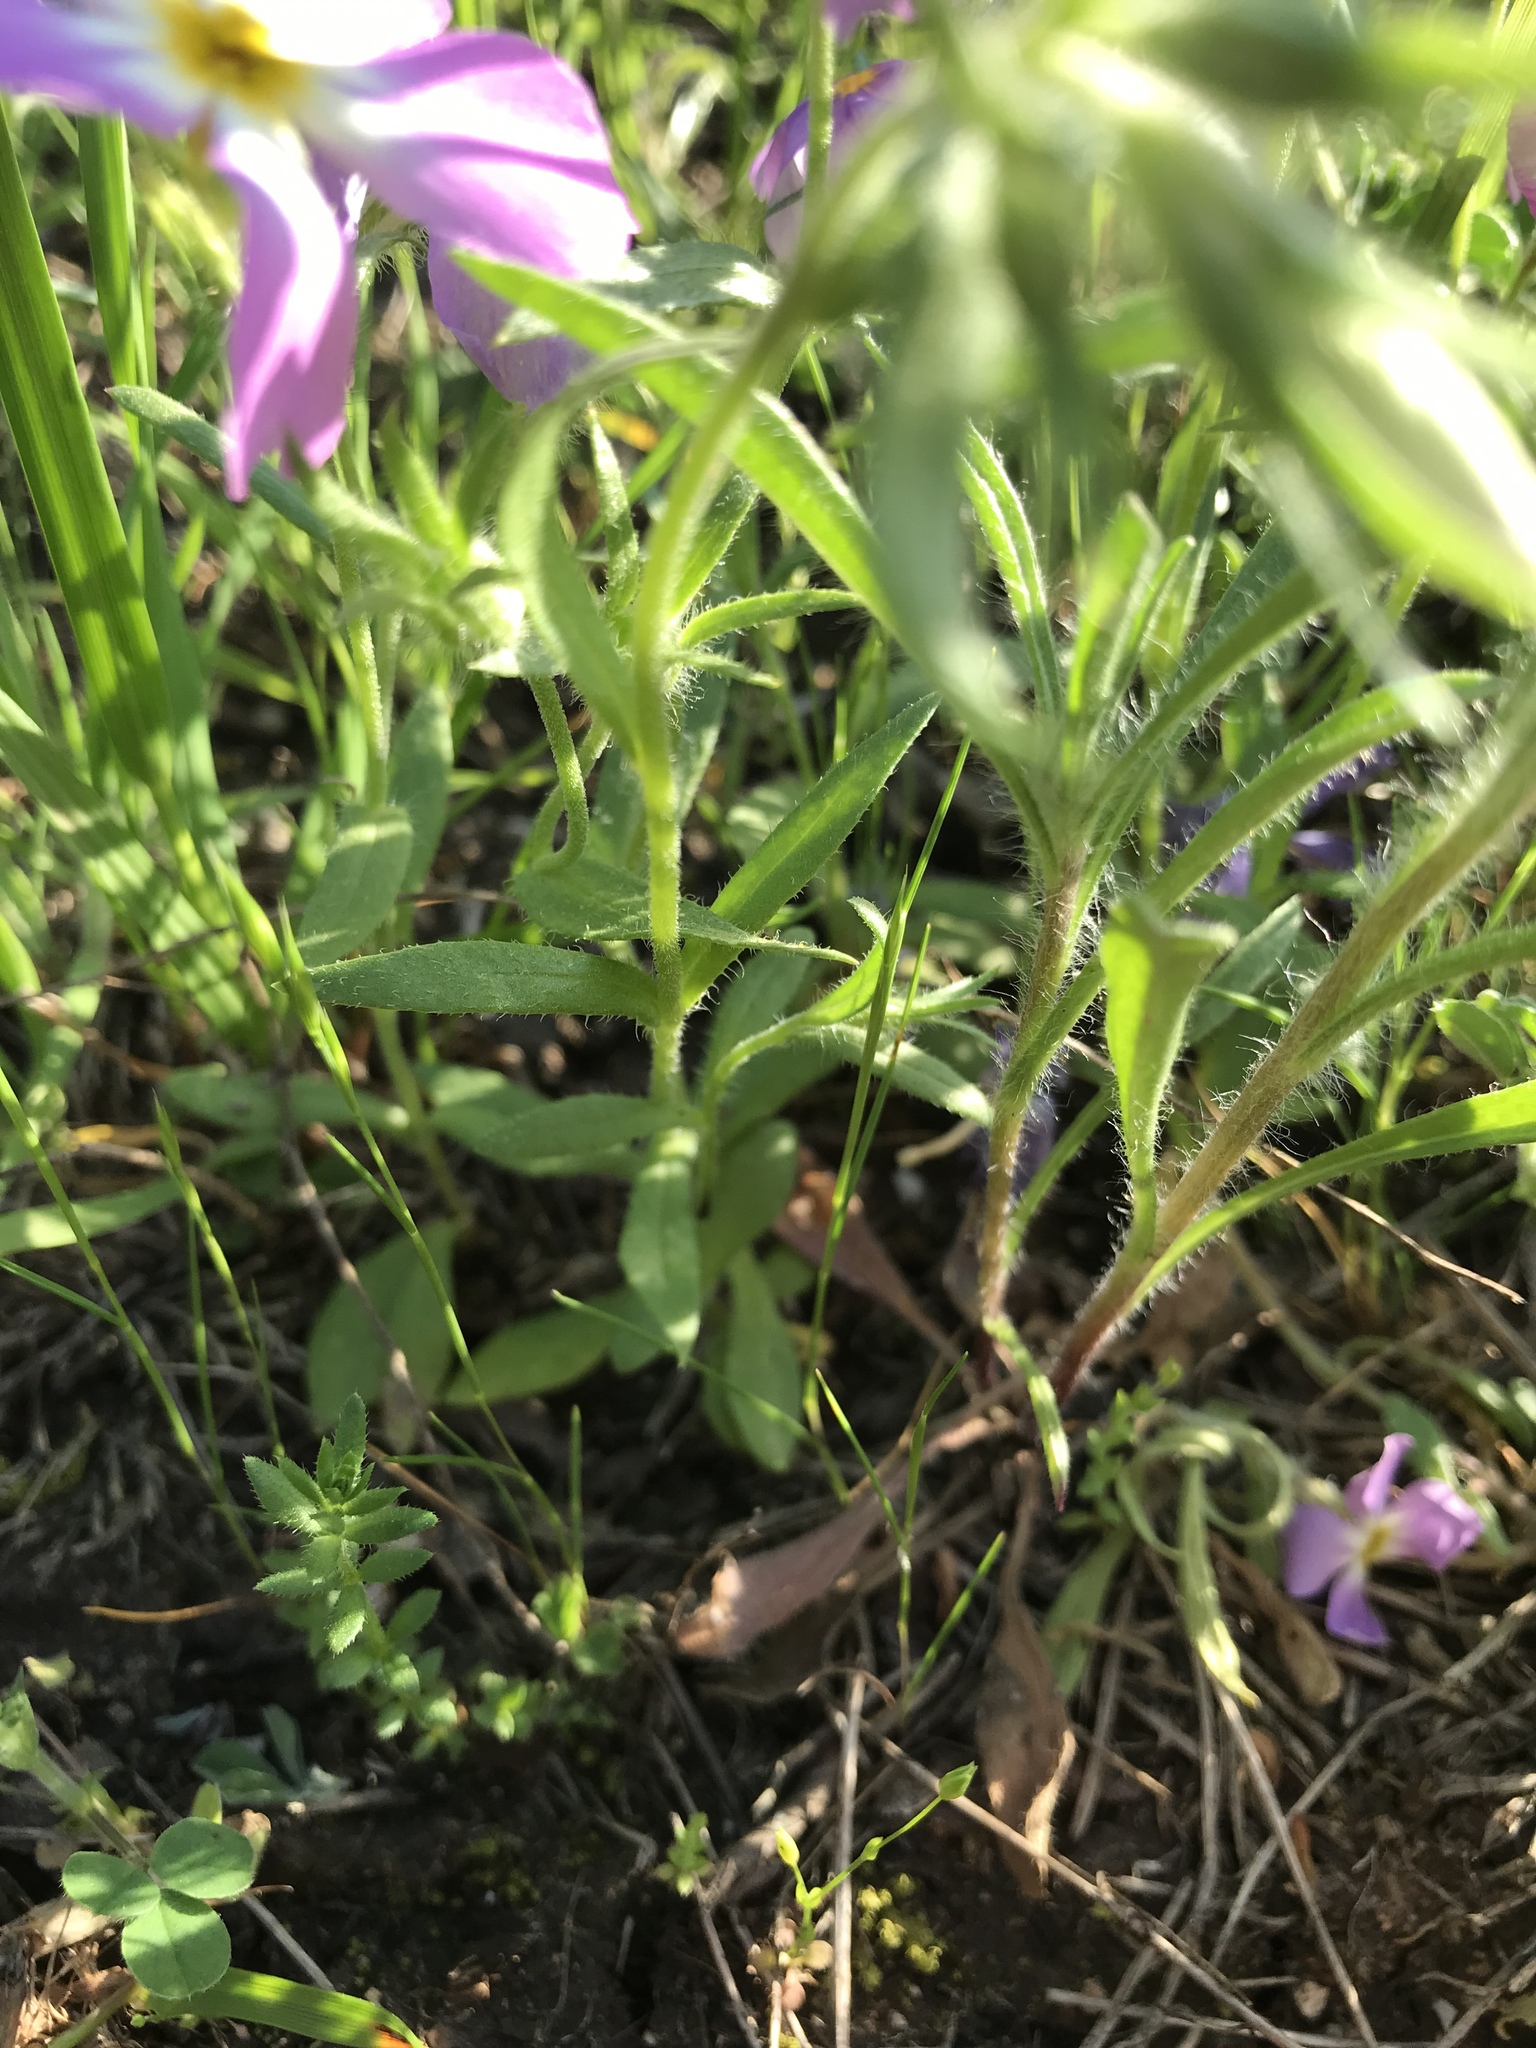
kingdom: Plantae
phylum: Tracheophyta
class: Magnoliopsida
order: Ericales
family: Polemoniaceae
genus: Phlox
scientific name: Phlox roemeriana
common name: Roemer's phlox
